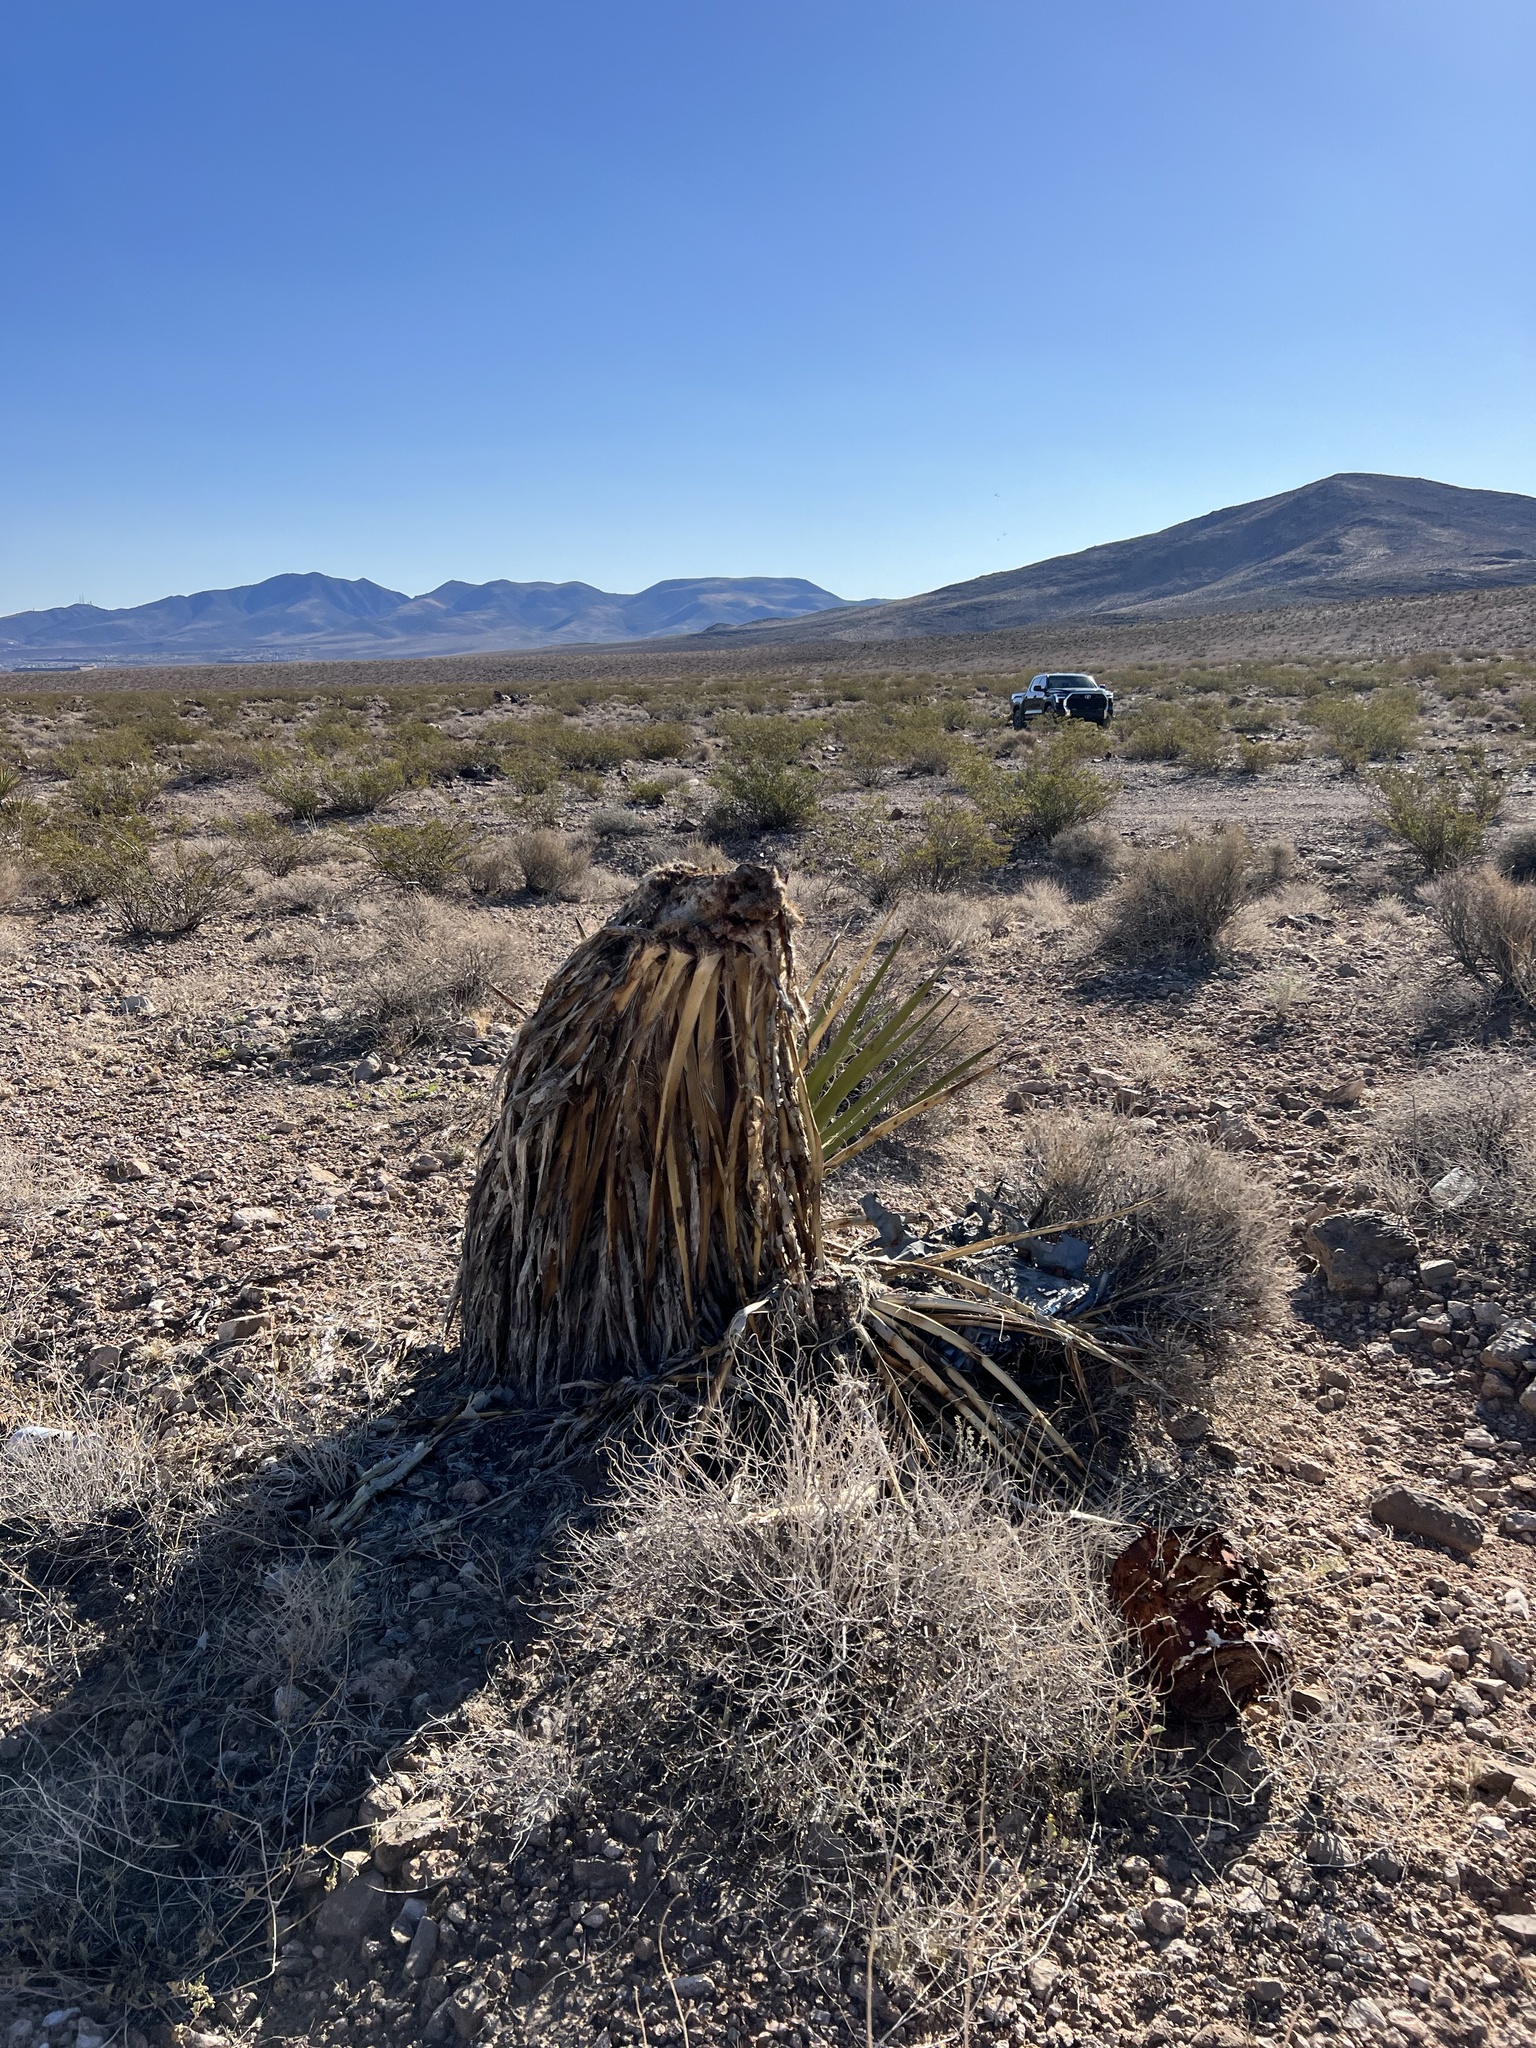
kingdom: Plantae
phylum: Tracheophyta
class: Liliopsida
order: Asparagales
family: Asparagaceae
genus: Yucca
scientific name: Yucca schidigera
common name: Mojave yucca
